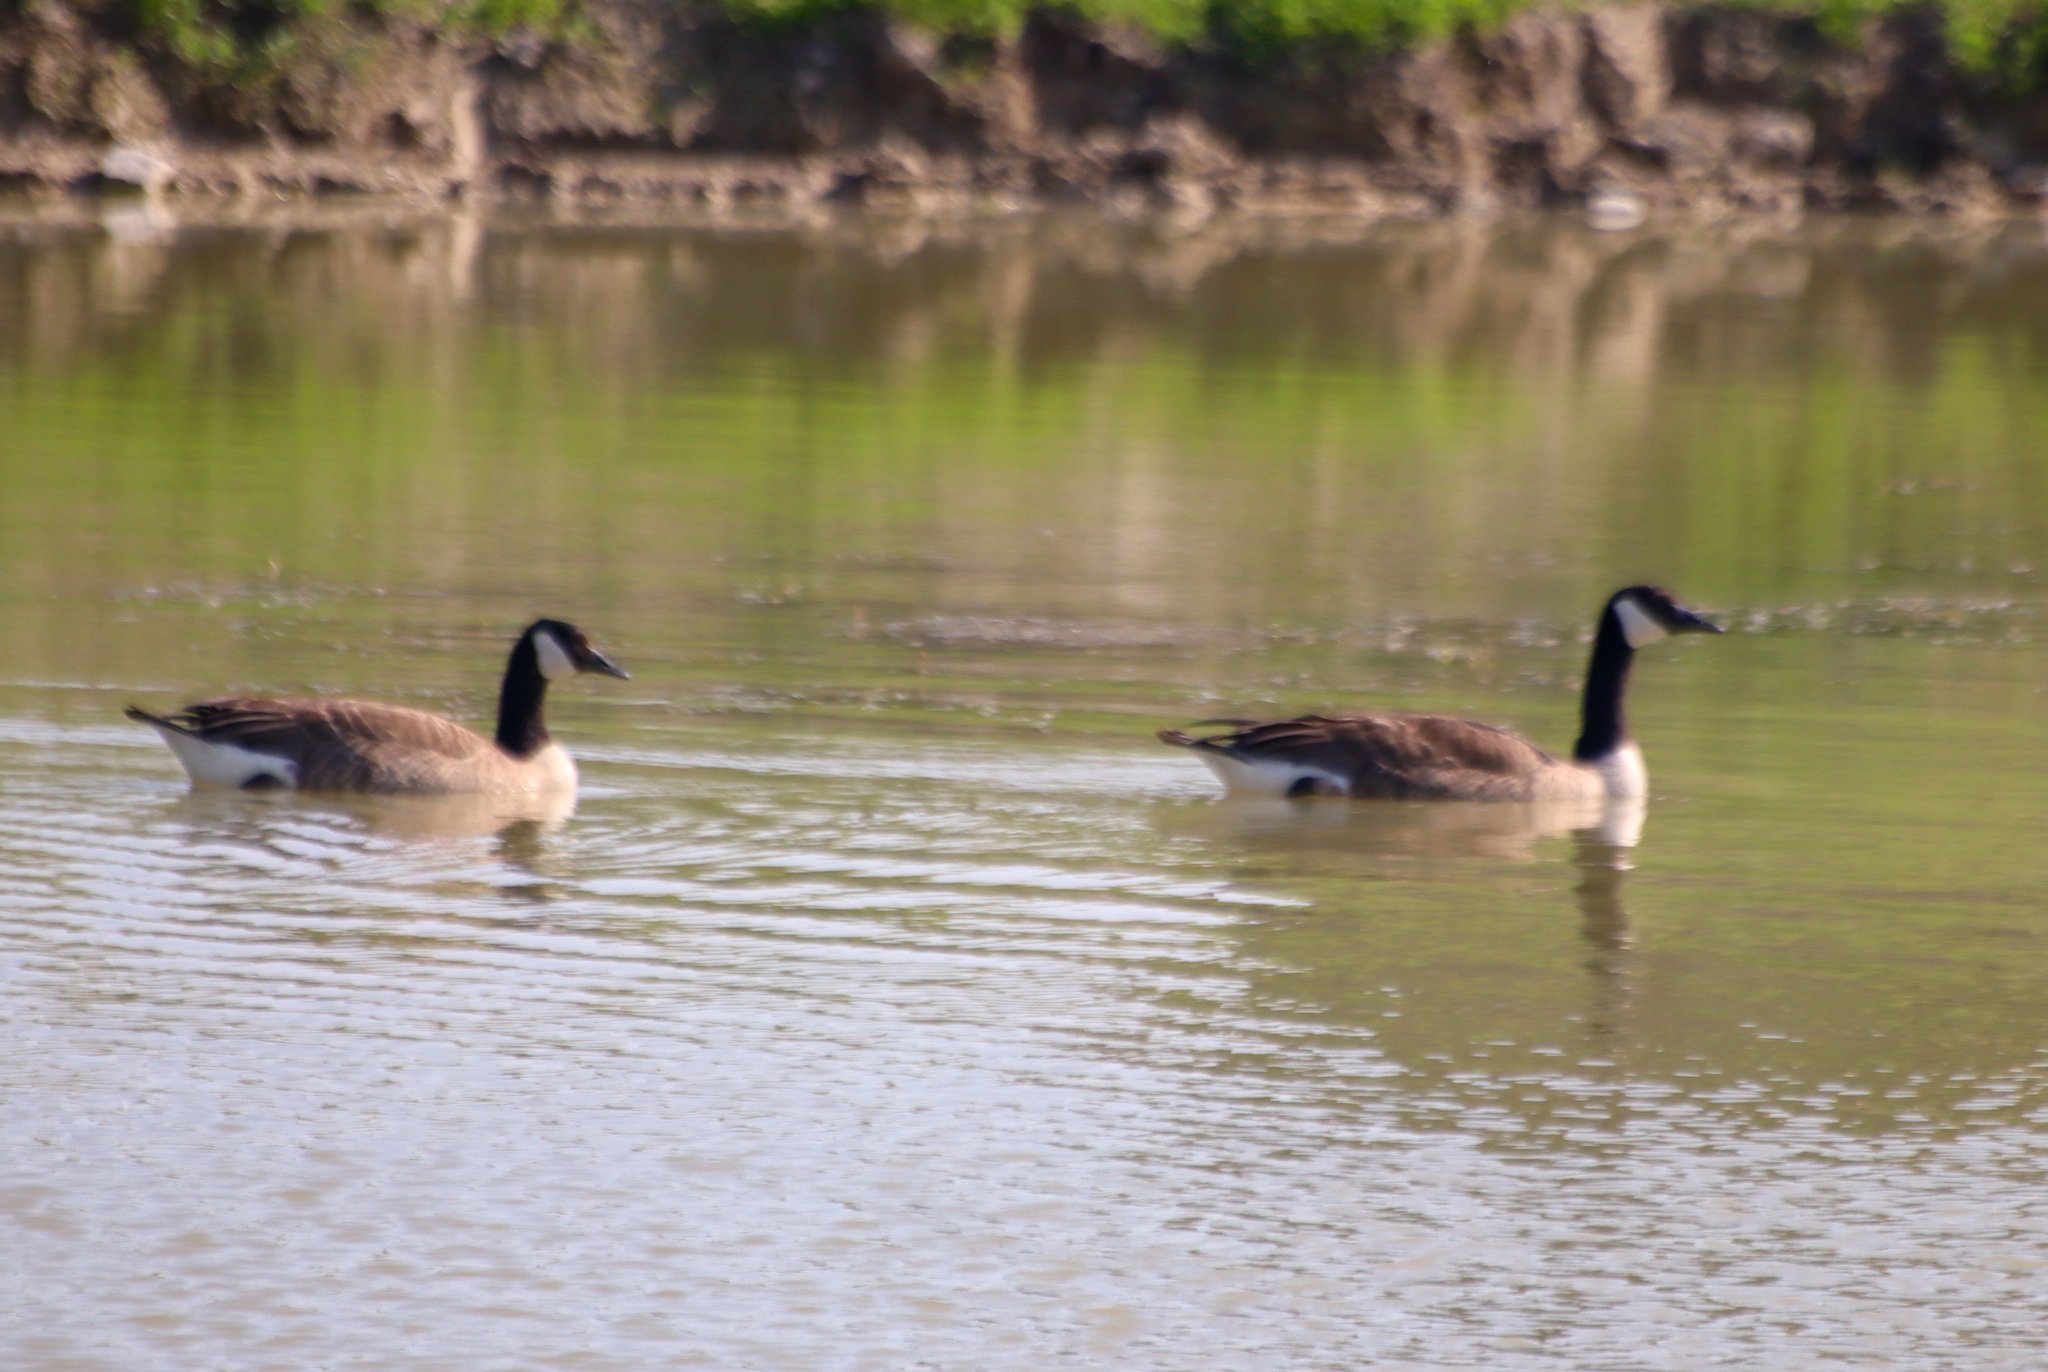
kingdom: Animalia
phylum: Chordata
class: Aves
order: Anseriformes
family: Anatidae
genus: Branta
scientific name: Branta canadensis
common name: Canada goose
